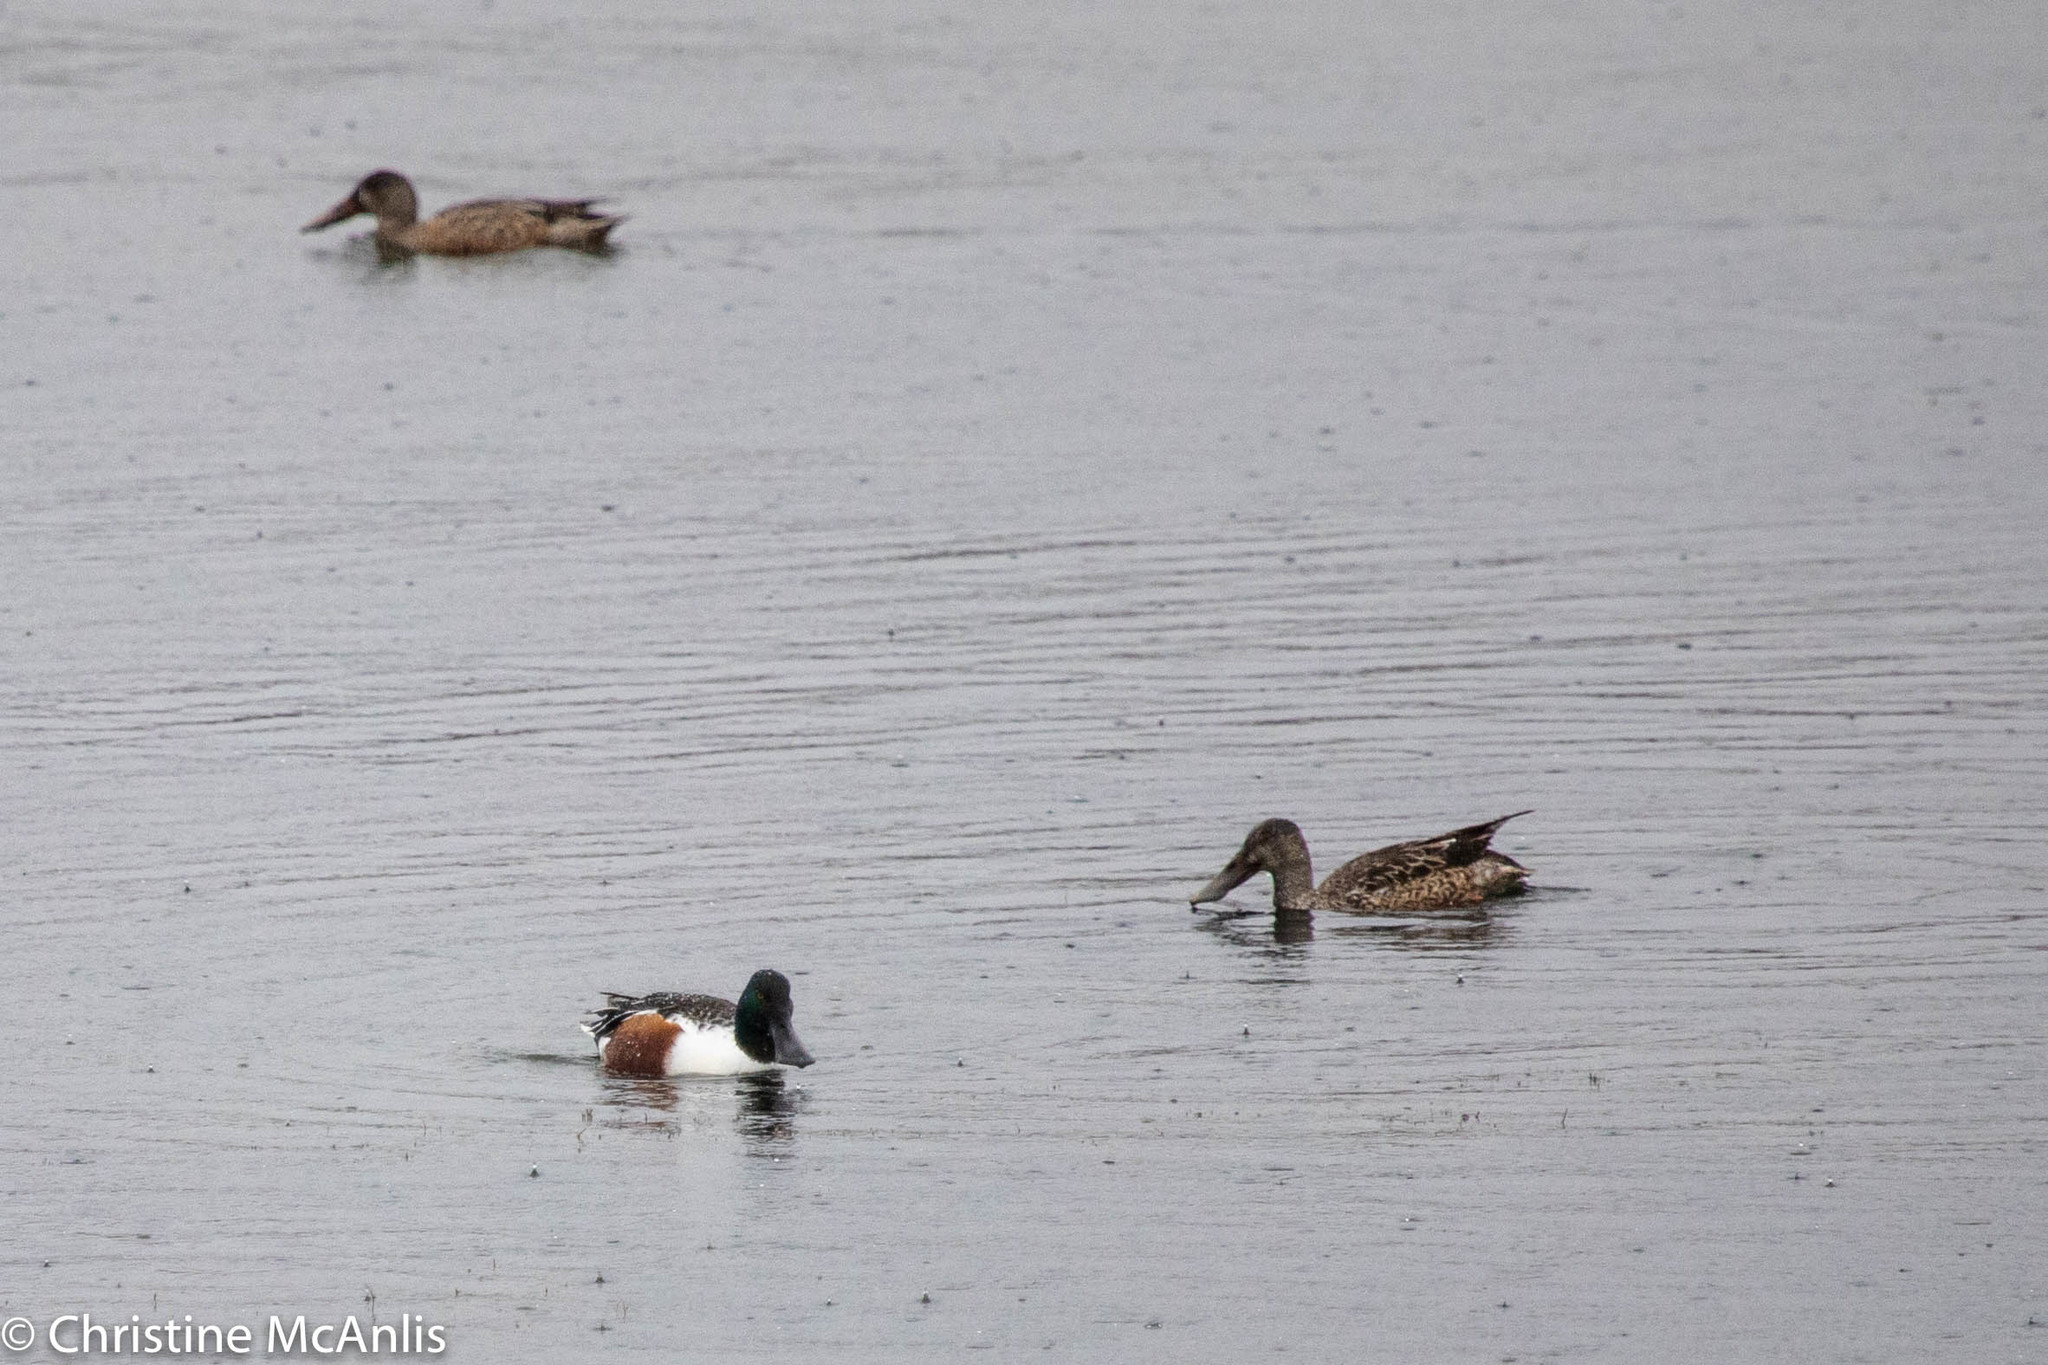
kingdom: Animalia
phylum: Chordata
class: Aves
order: Anseriformes
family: Anatidae
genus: Spatula
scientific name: Spatula clypeata
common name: Northern shoveler
